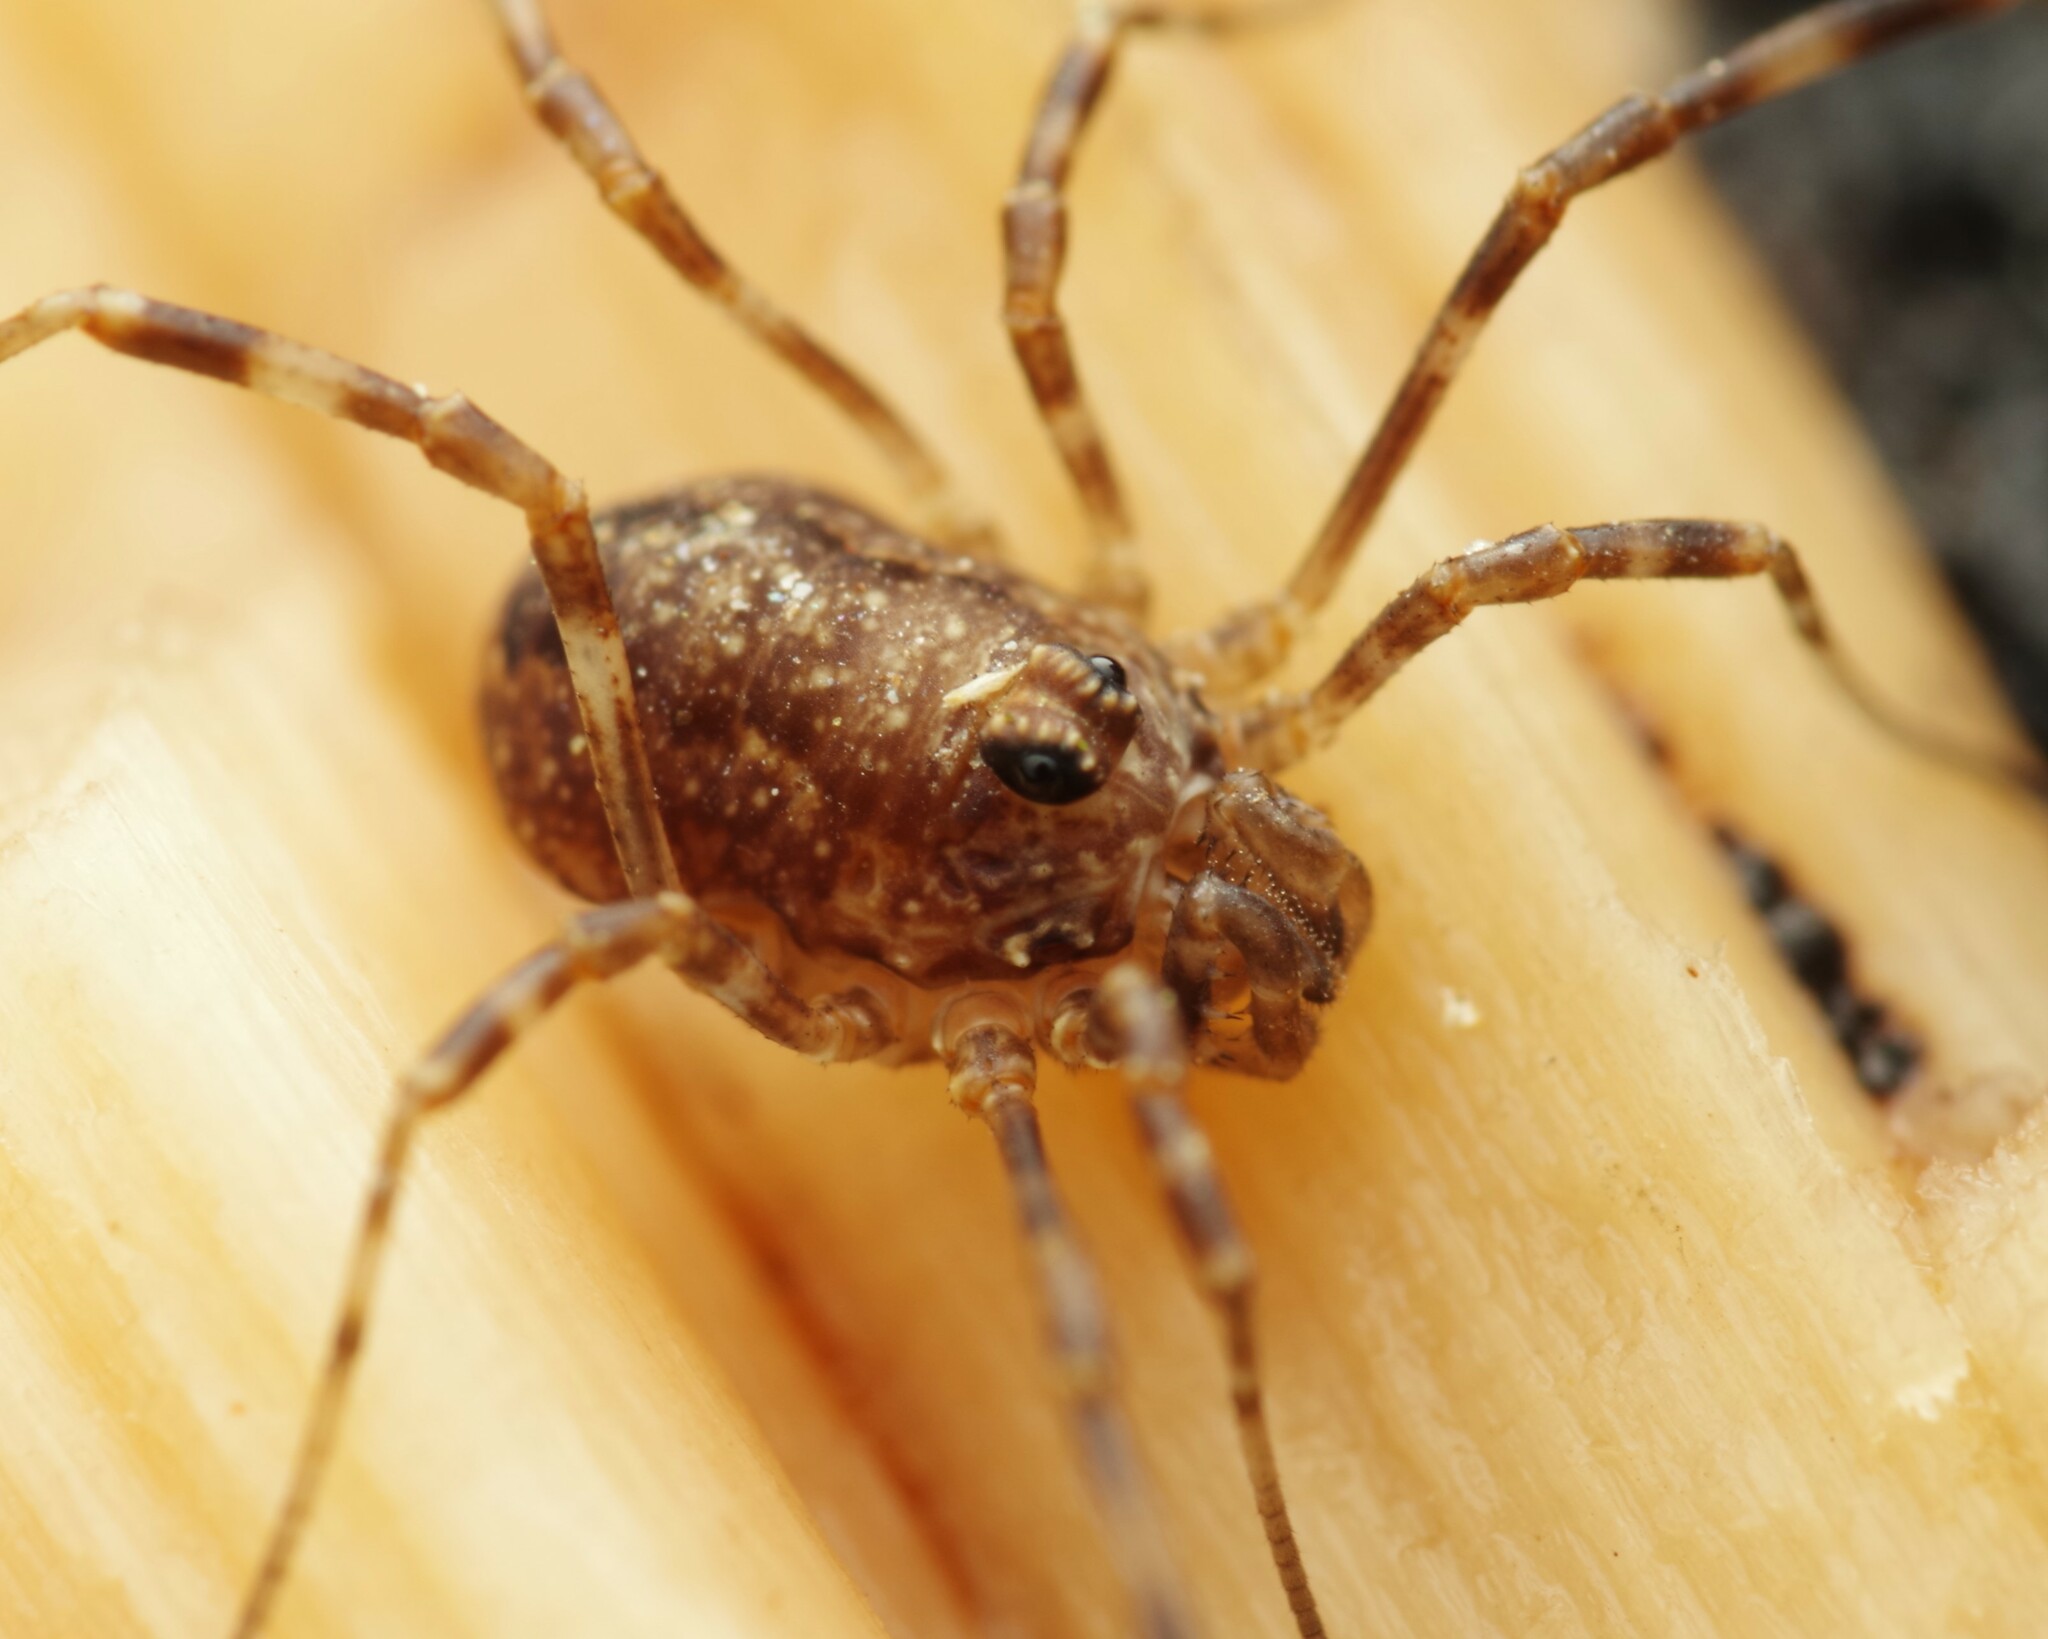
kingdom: Animalia
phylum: Arthropoda
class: Arachnida
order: Opiliones
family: Phalangiidae
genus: Rilaena
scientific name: Rilaena triangularis
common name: Spring harvestman
